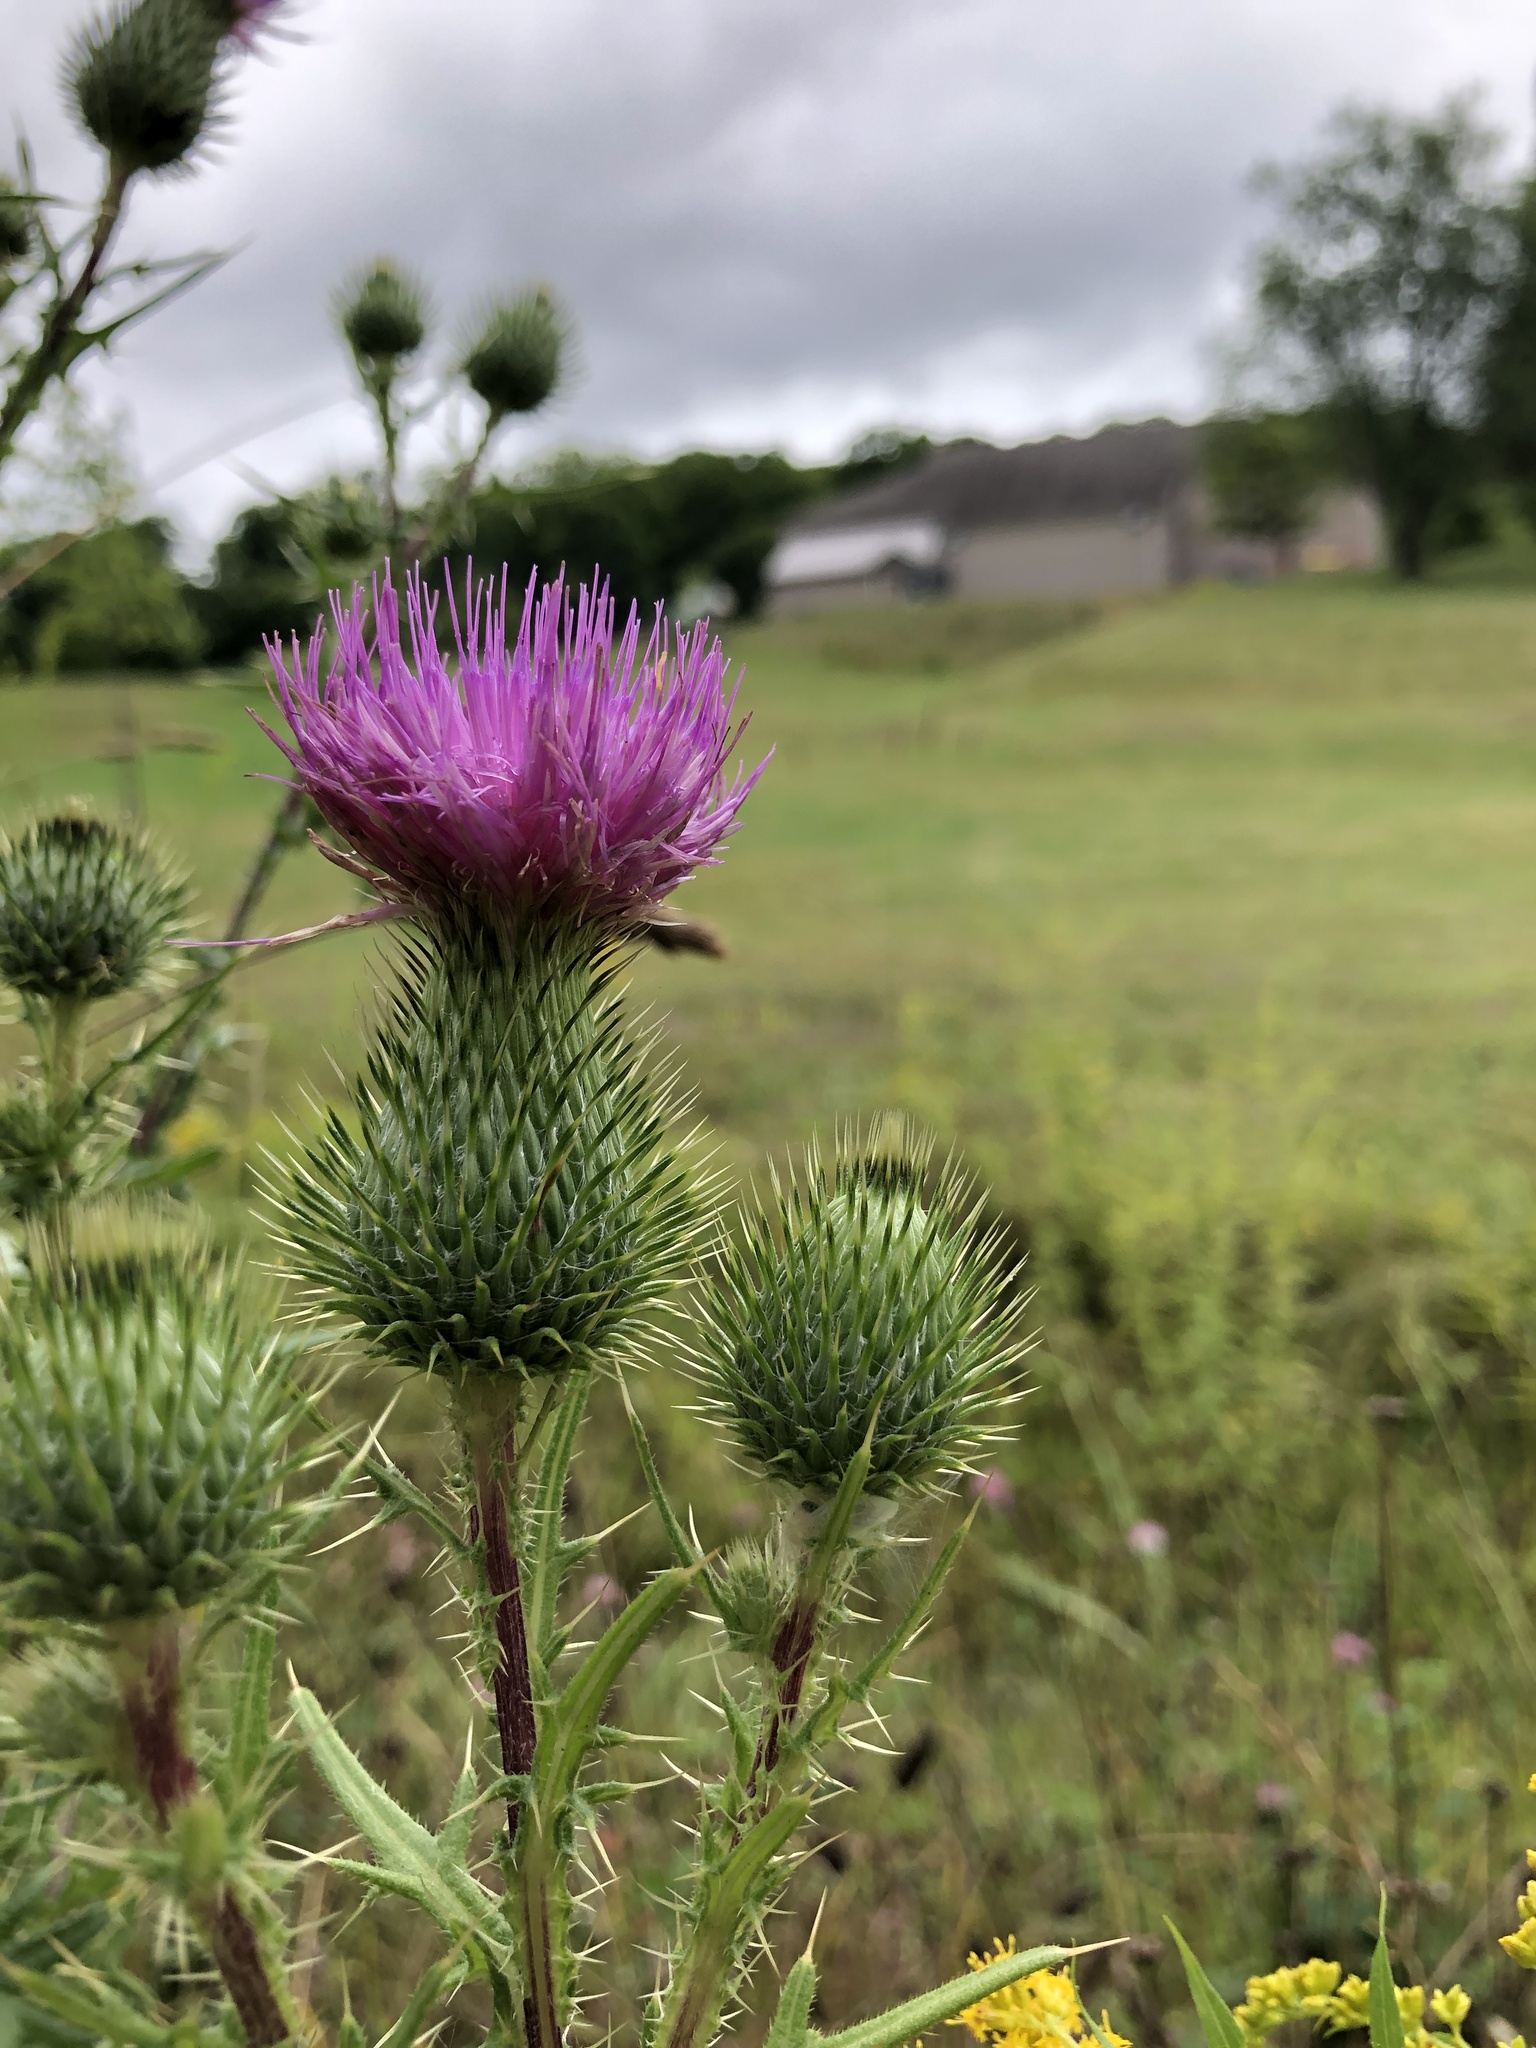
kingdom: Plantae
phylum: Tracheophyta
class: Magnoliopsida
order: Asterales
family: Asteraceae
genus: Cirsium
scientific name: Cirsium vulgare
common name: Bull thistle
